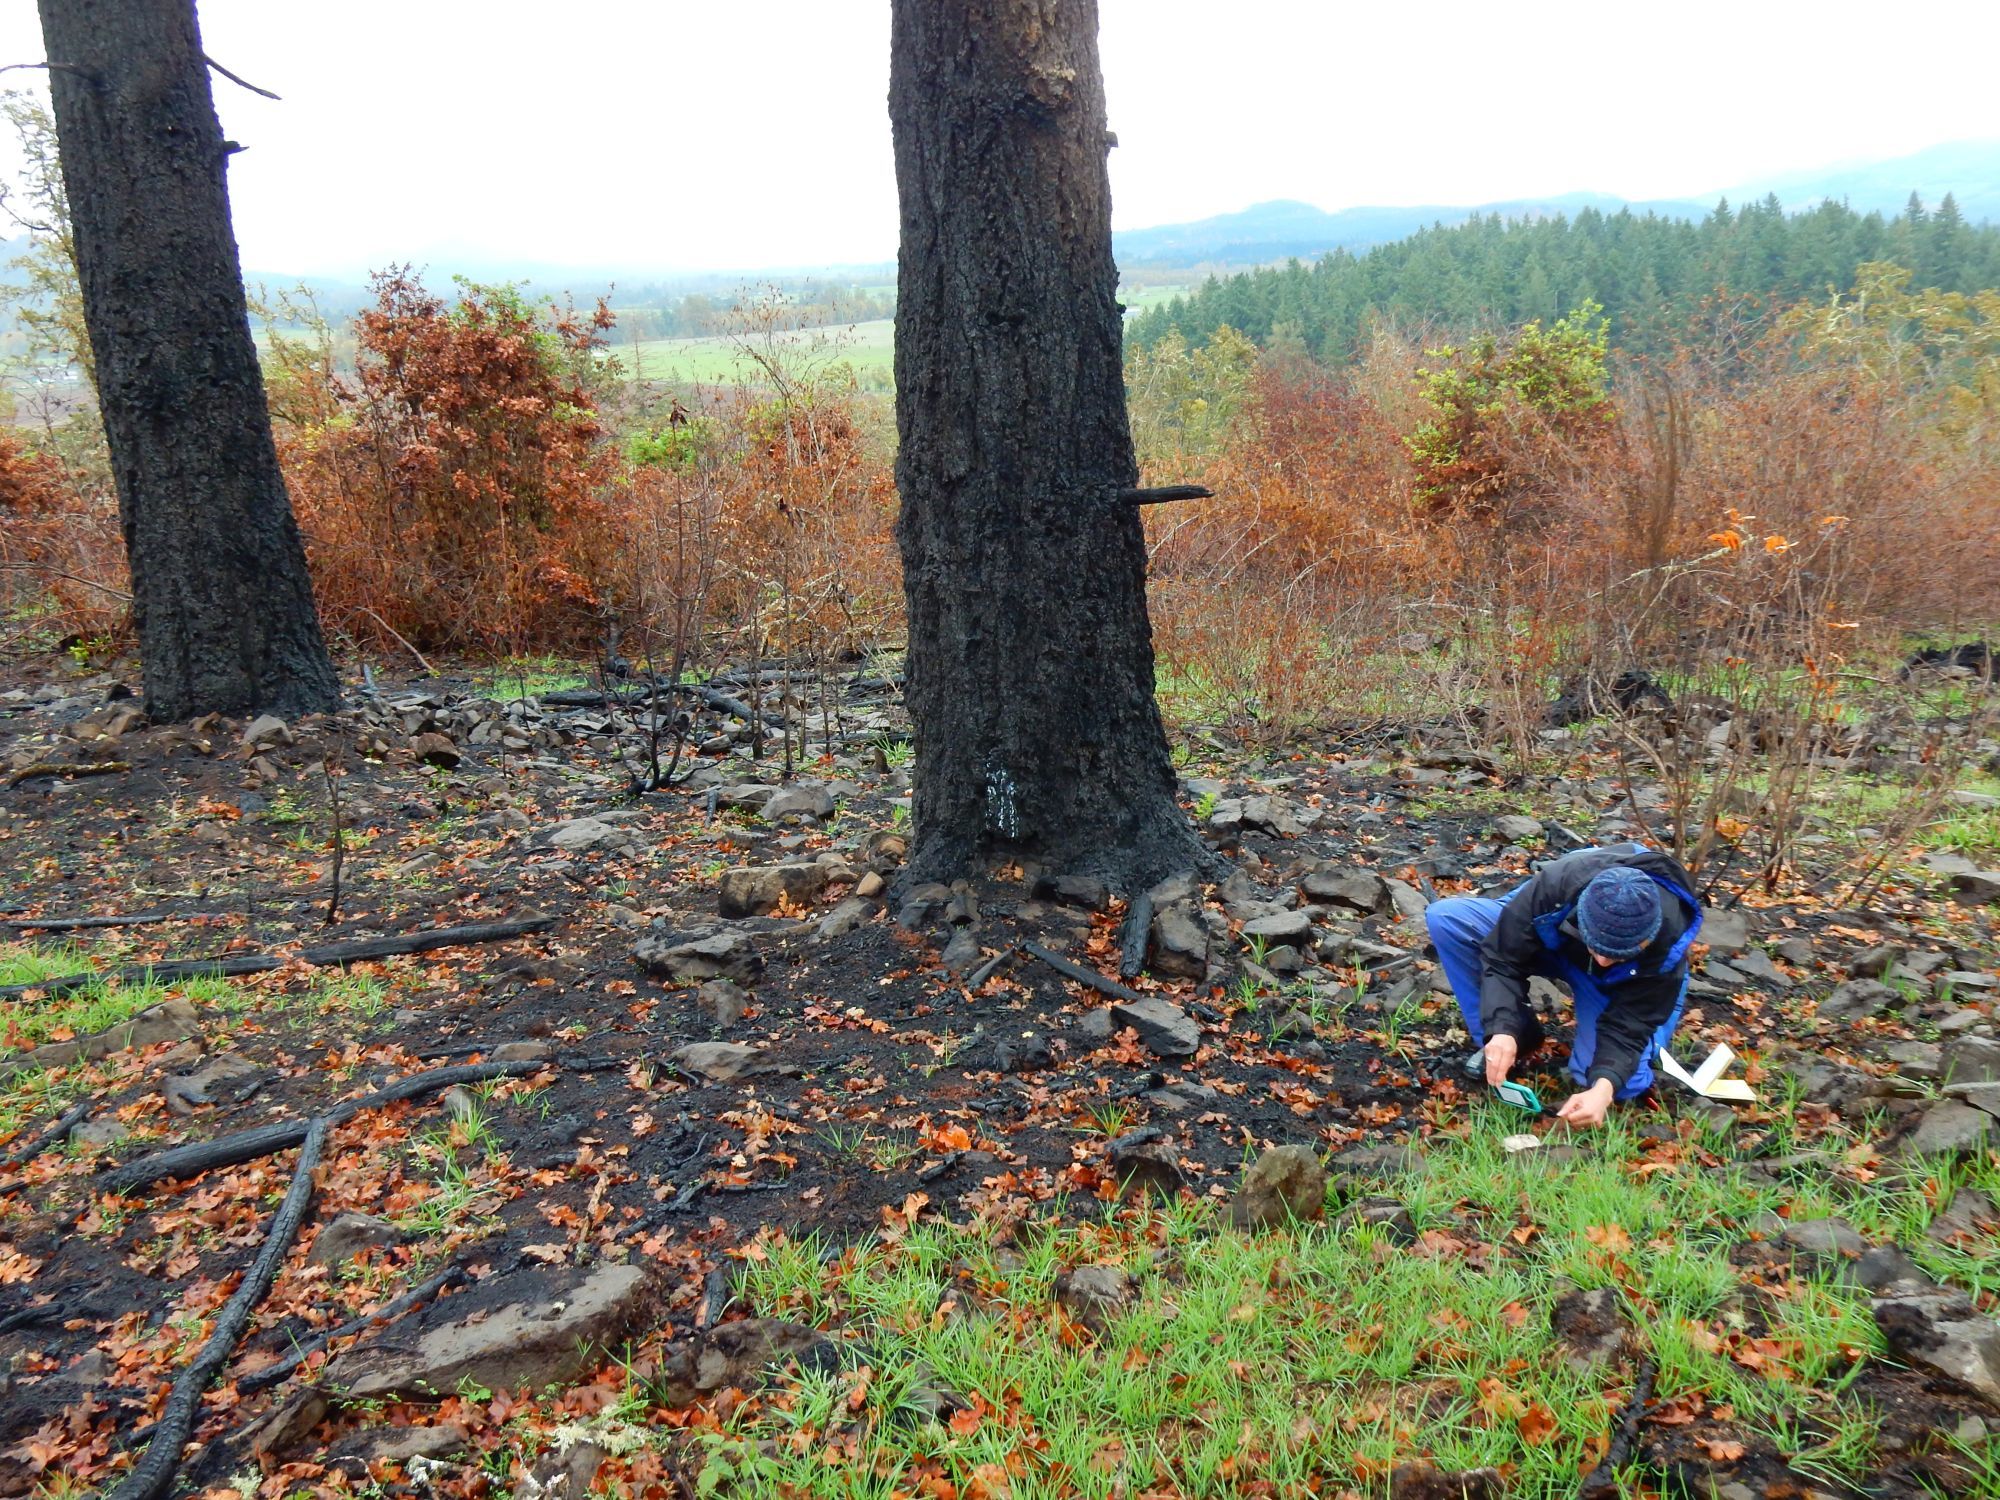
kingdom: Fungi
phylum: Basidiomycota
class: Agaricomycetes
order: Agaricales
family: Amanitaceae
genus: Amanita
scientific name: Amanita protecta
